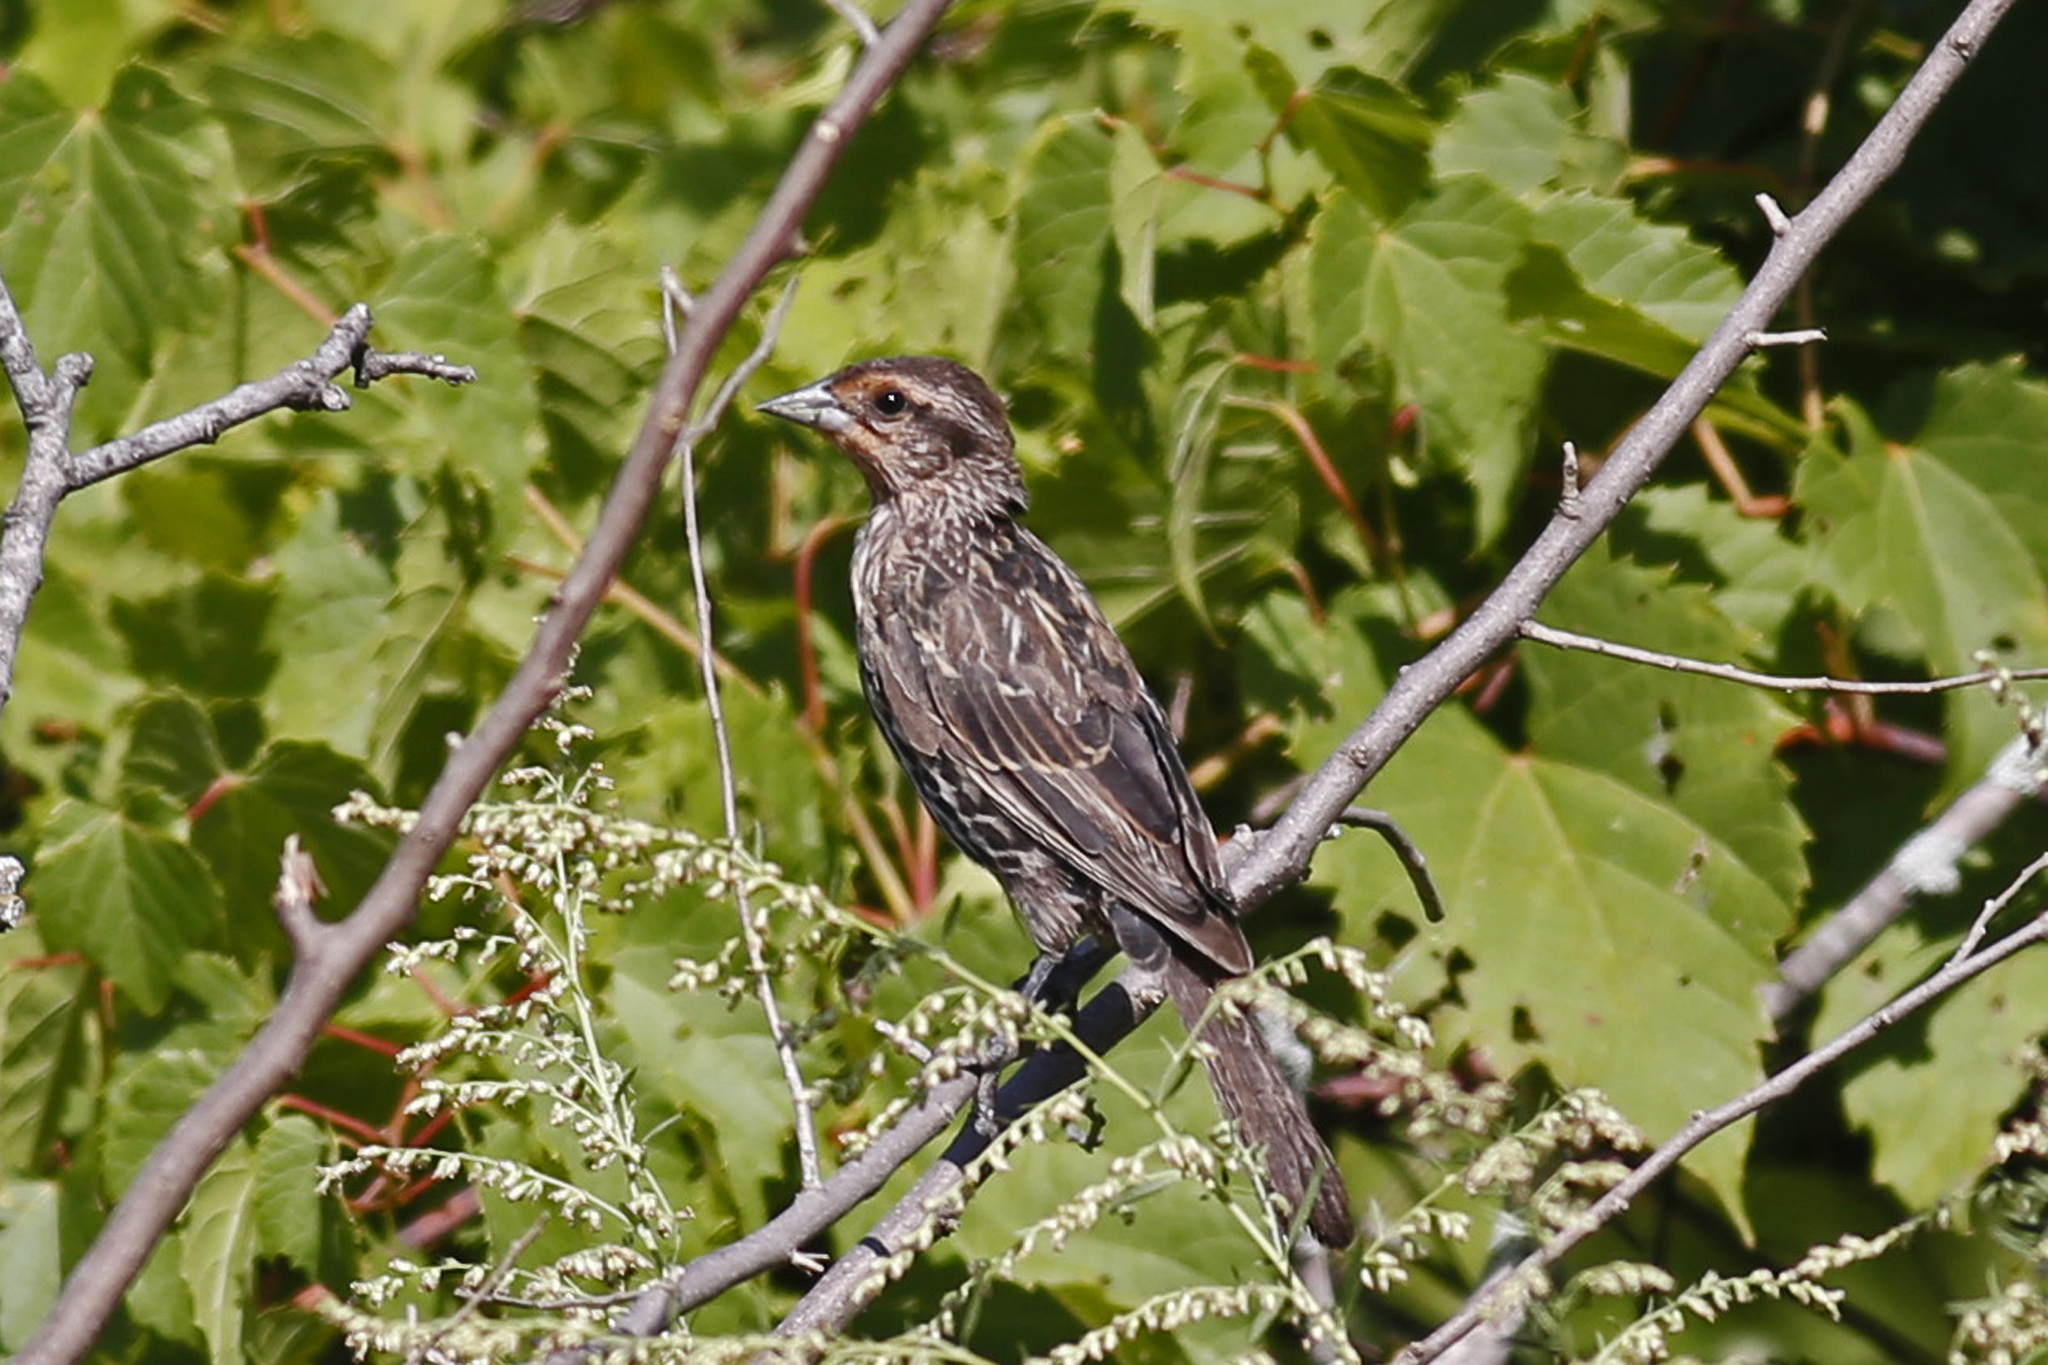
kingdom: Animalia
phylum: Chordata
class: Aves
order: Passeriformes
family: Icteridae
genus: Agelaius
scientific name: Agelaius phoeniceus
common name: Red-winged blackbird
